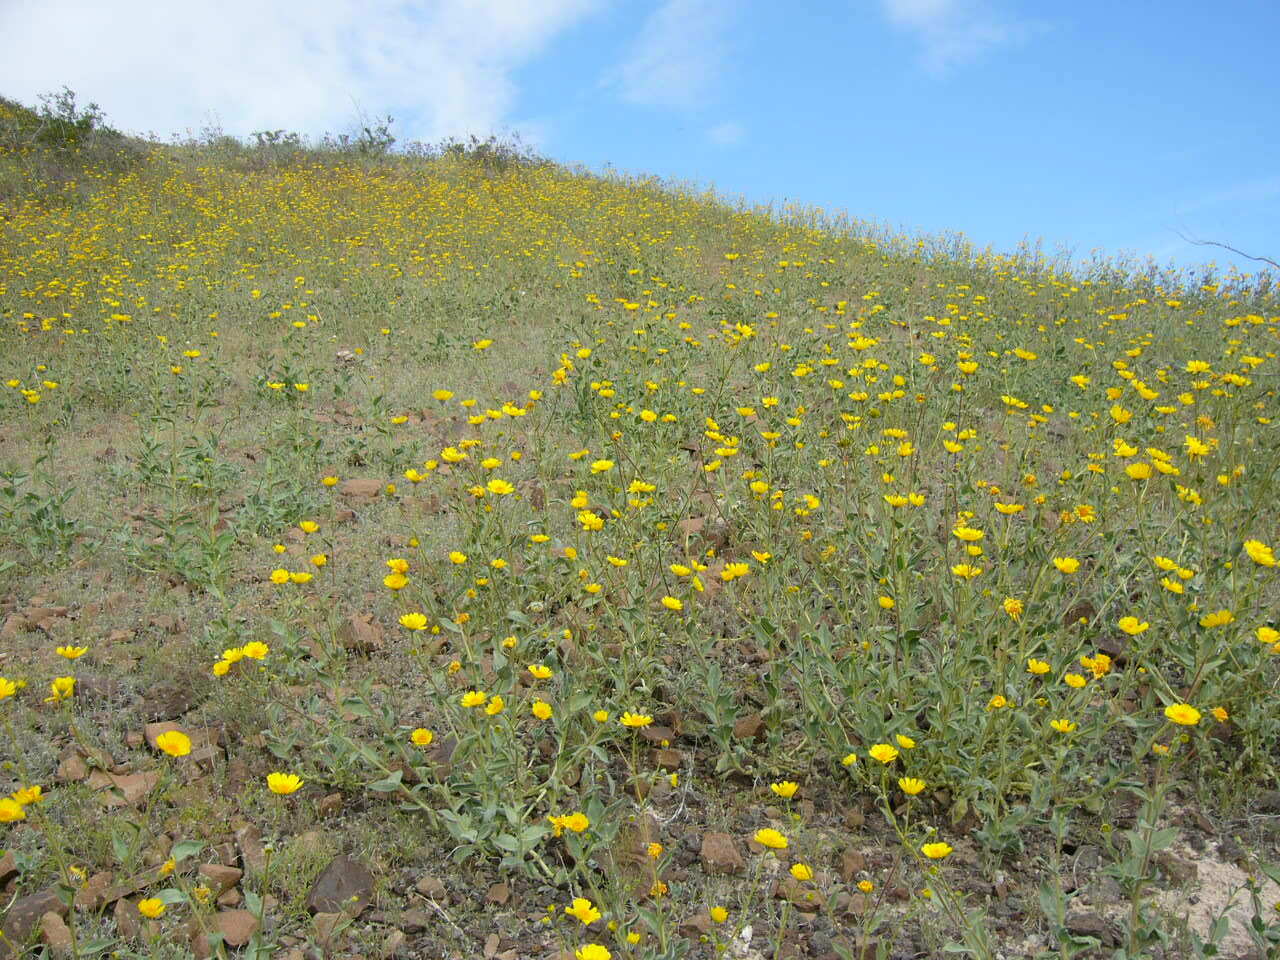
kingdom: Plantae
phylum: Tracheophyta
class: Magnoliopsida
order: Asterales
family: Asteraceae
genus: Geraea
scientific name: Geraea canescens
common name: Desert-gold
